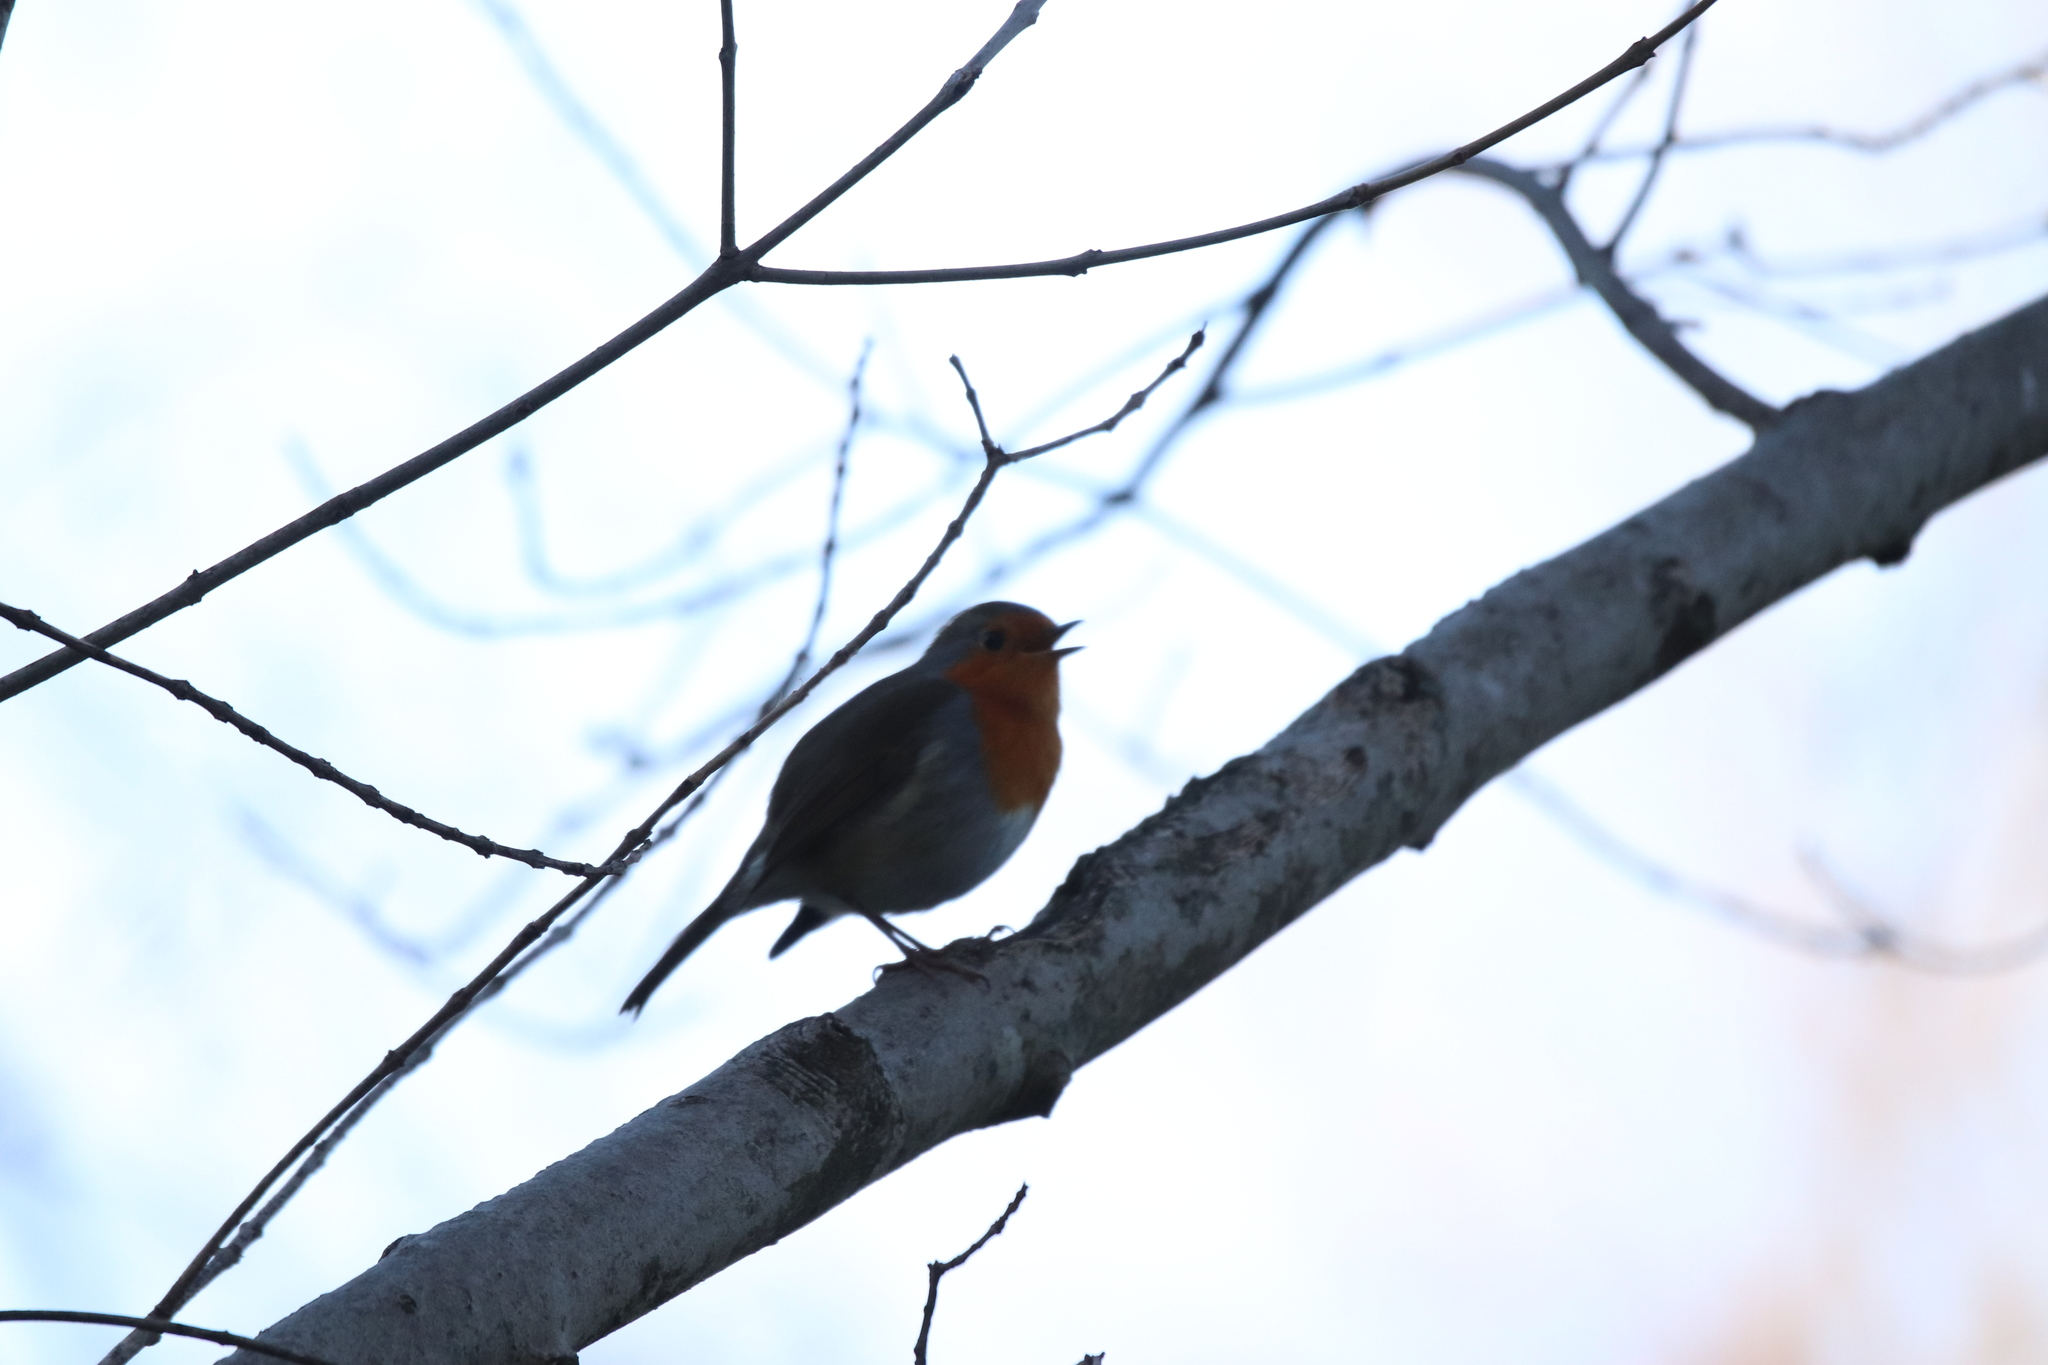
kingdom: Animalia
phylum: Chordata
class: Aves
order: Passeriformes
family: Muscicapidae
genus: Erithacus
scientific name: Erithacus rubecula
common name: European robin
